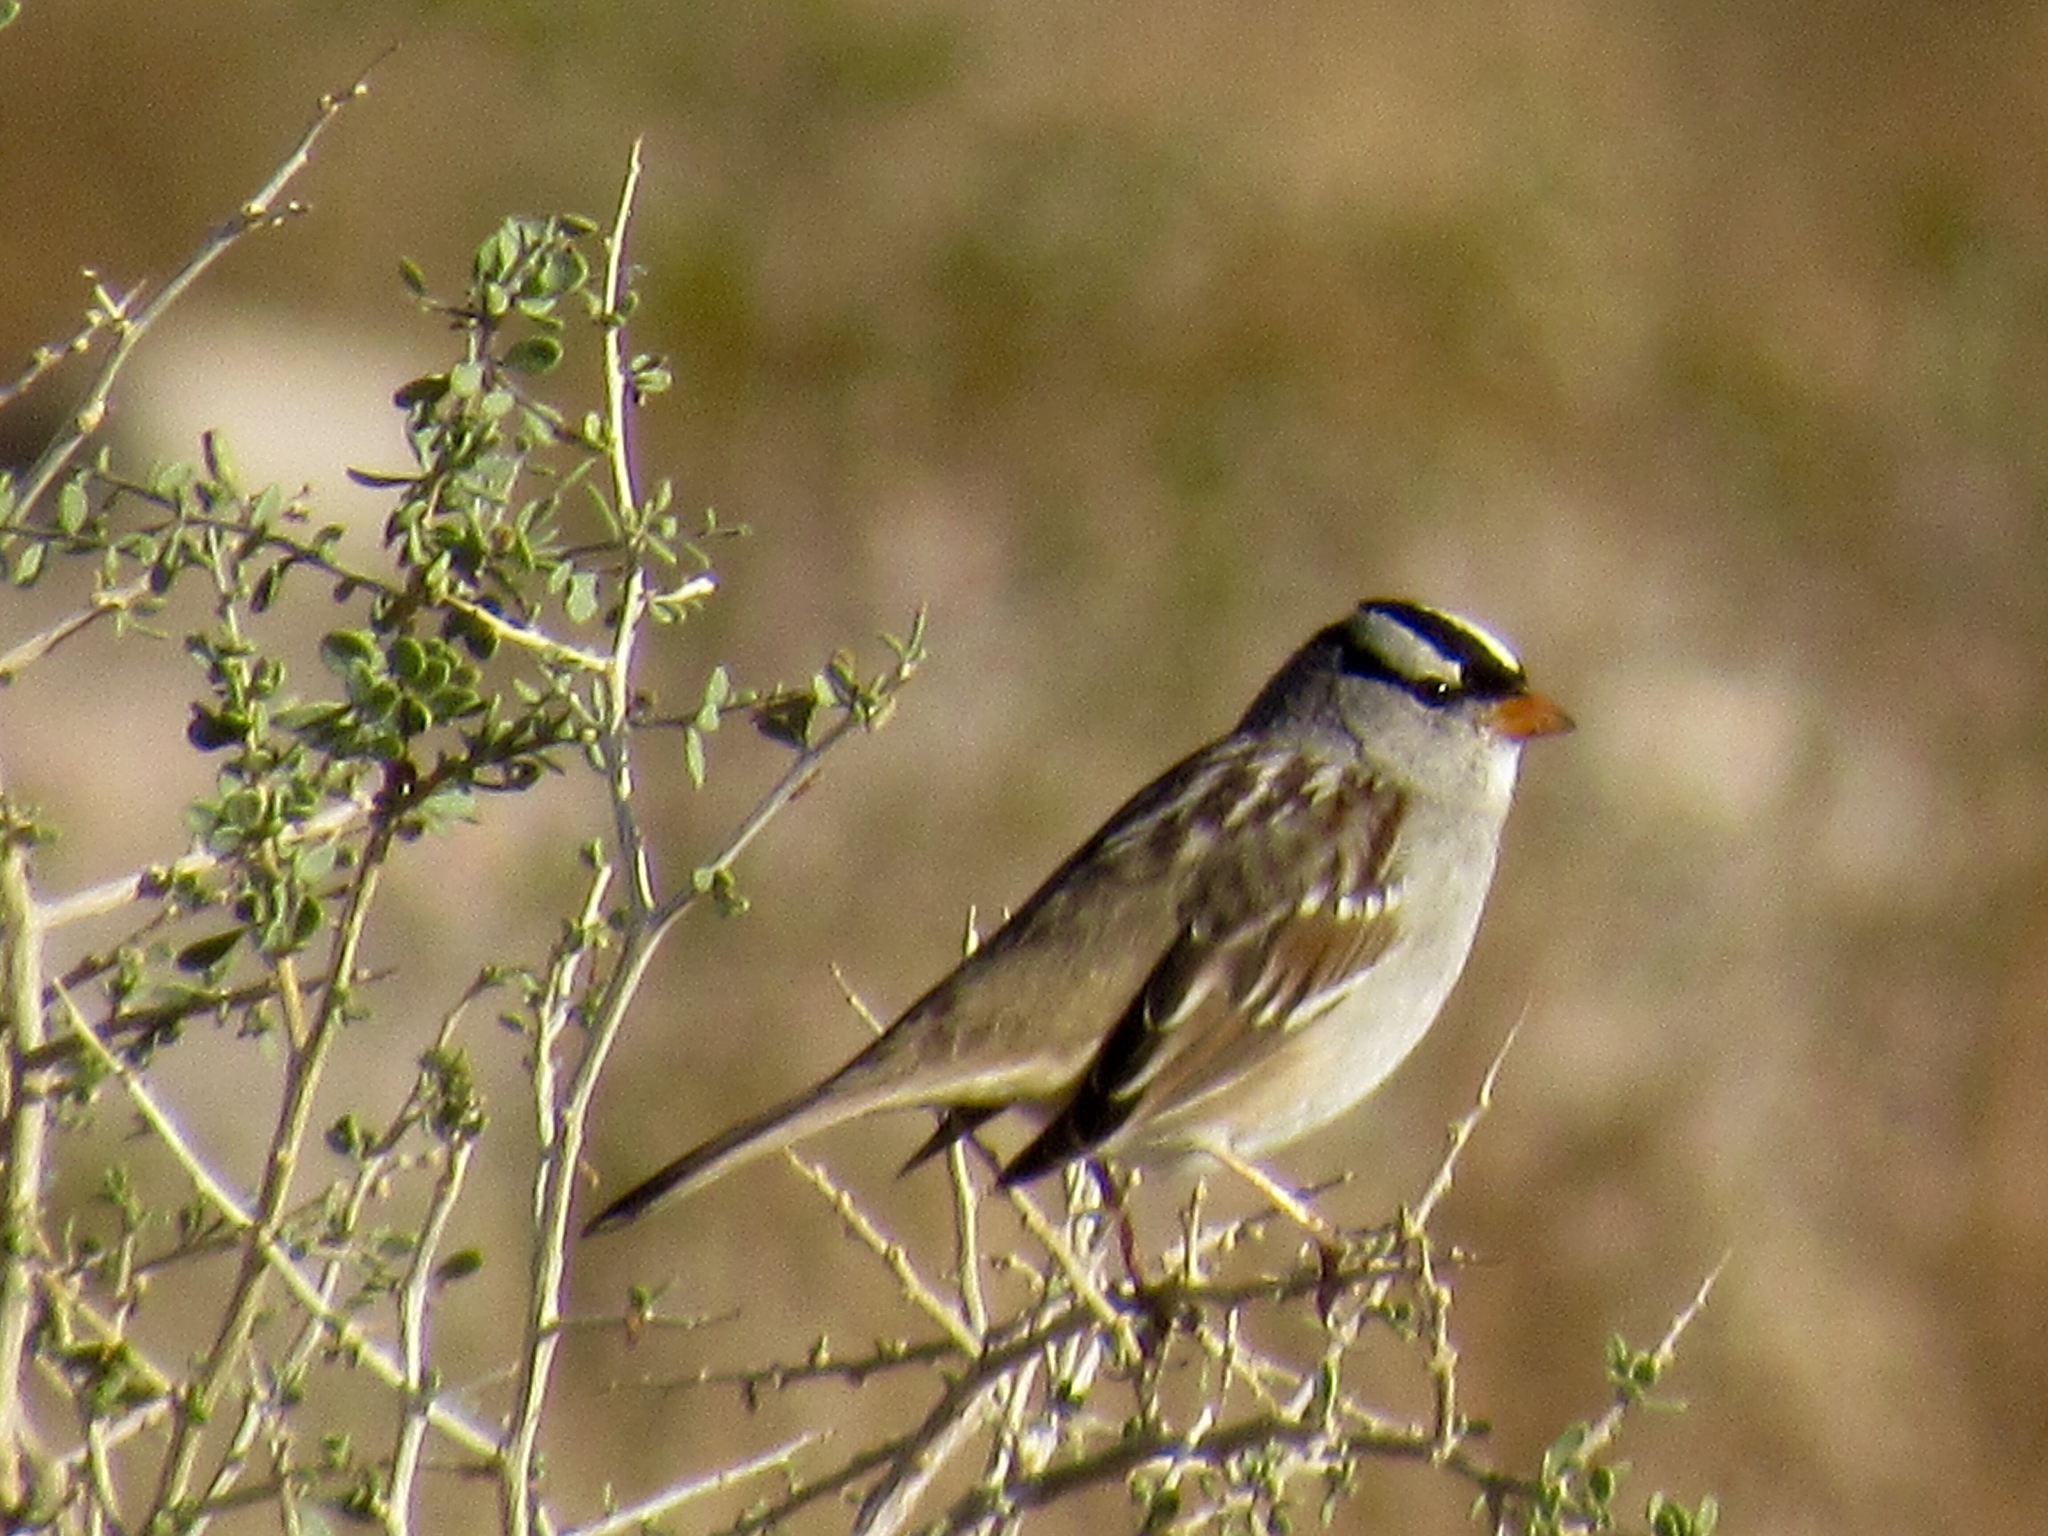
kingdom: Animalia
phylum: Chordata
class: Aves
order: Passeriformes
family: Passerellidae
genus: Zonotrichia
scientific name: Zonotrichia leucophrys
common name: White-crowned sparrow
